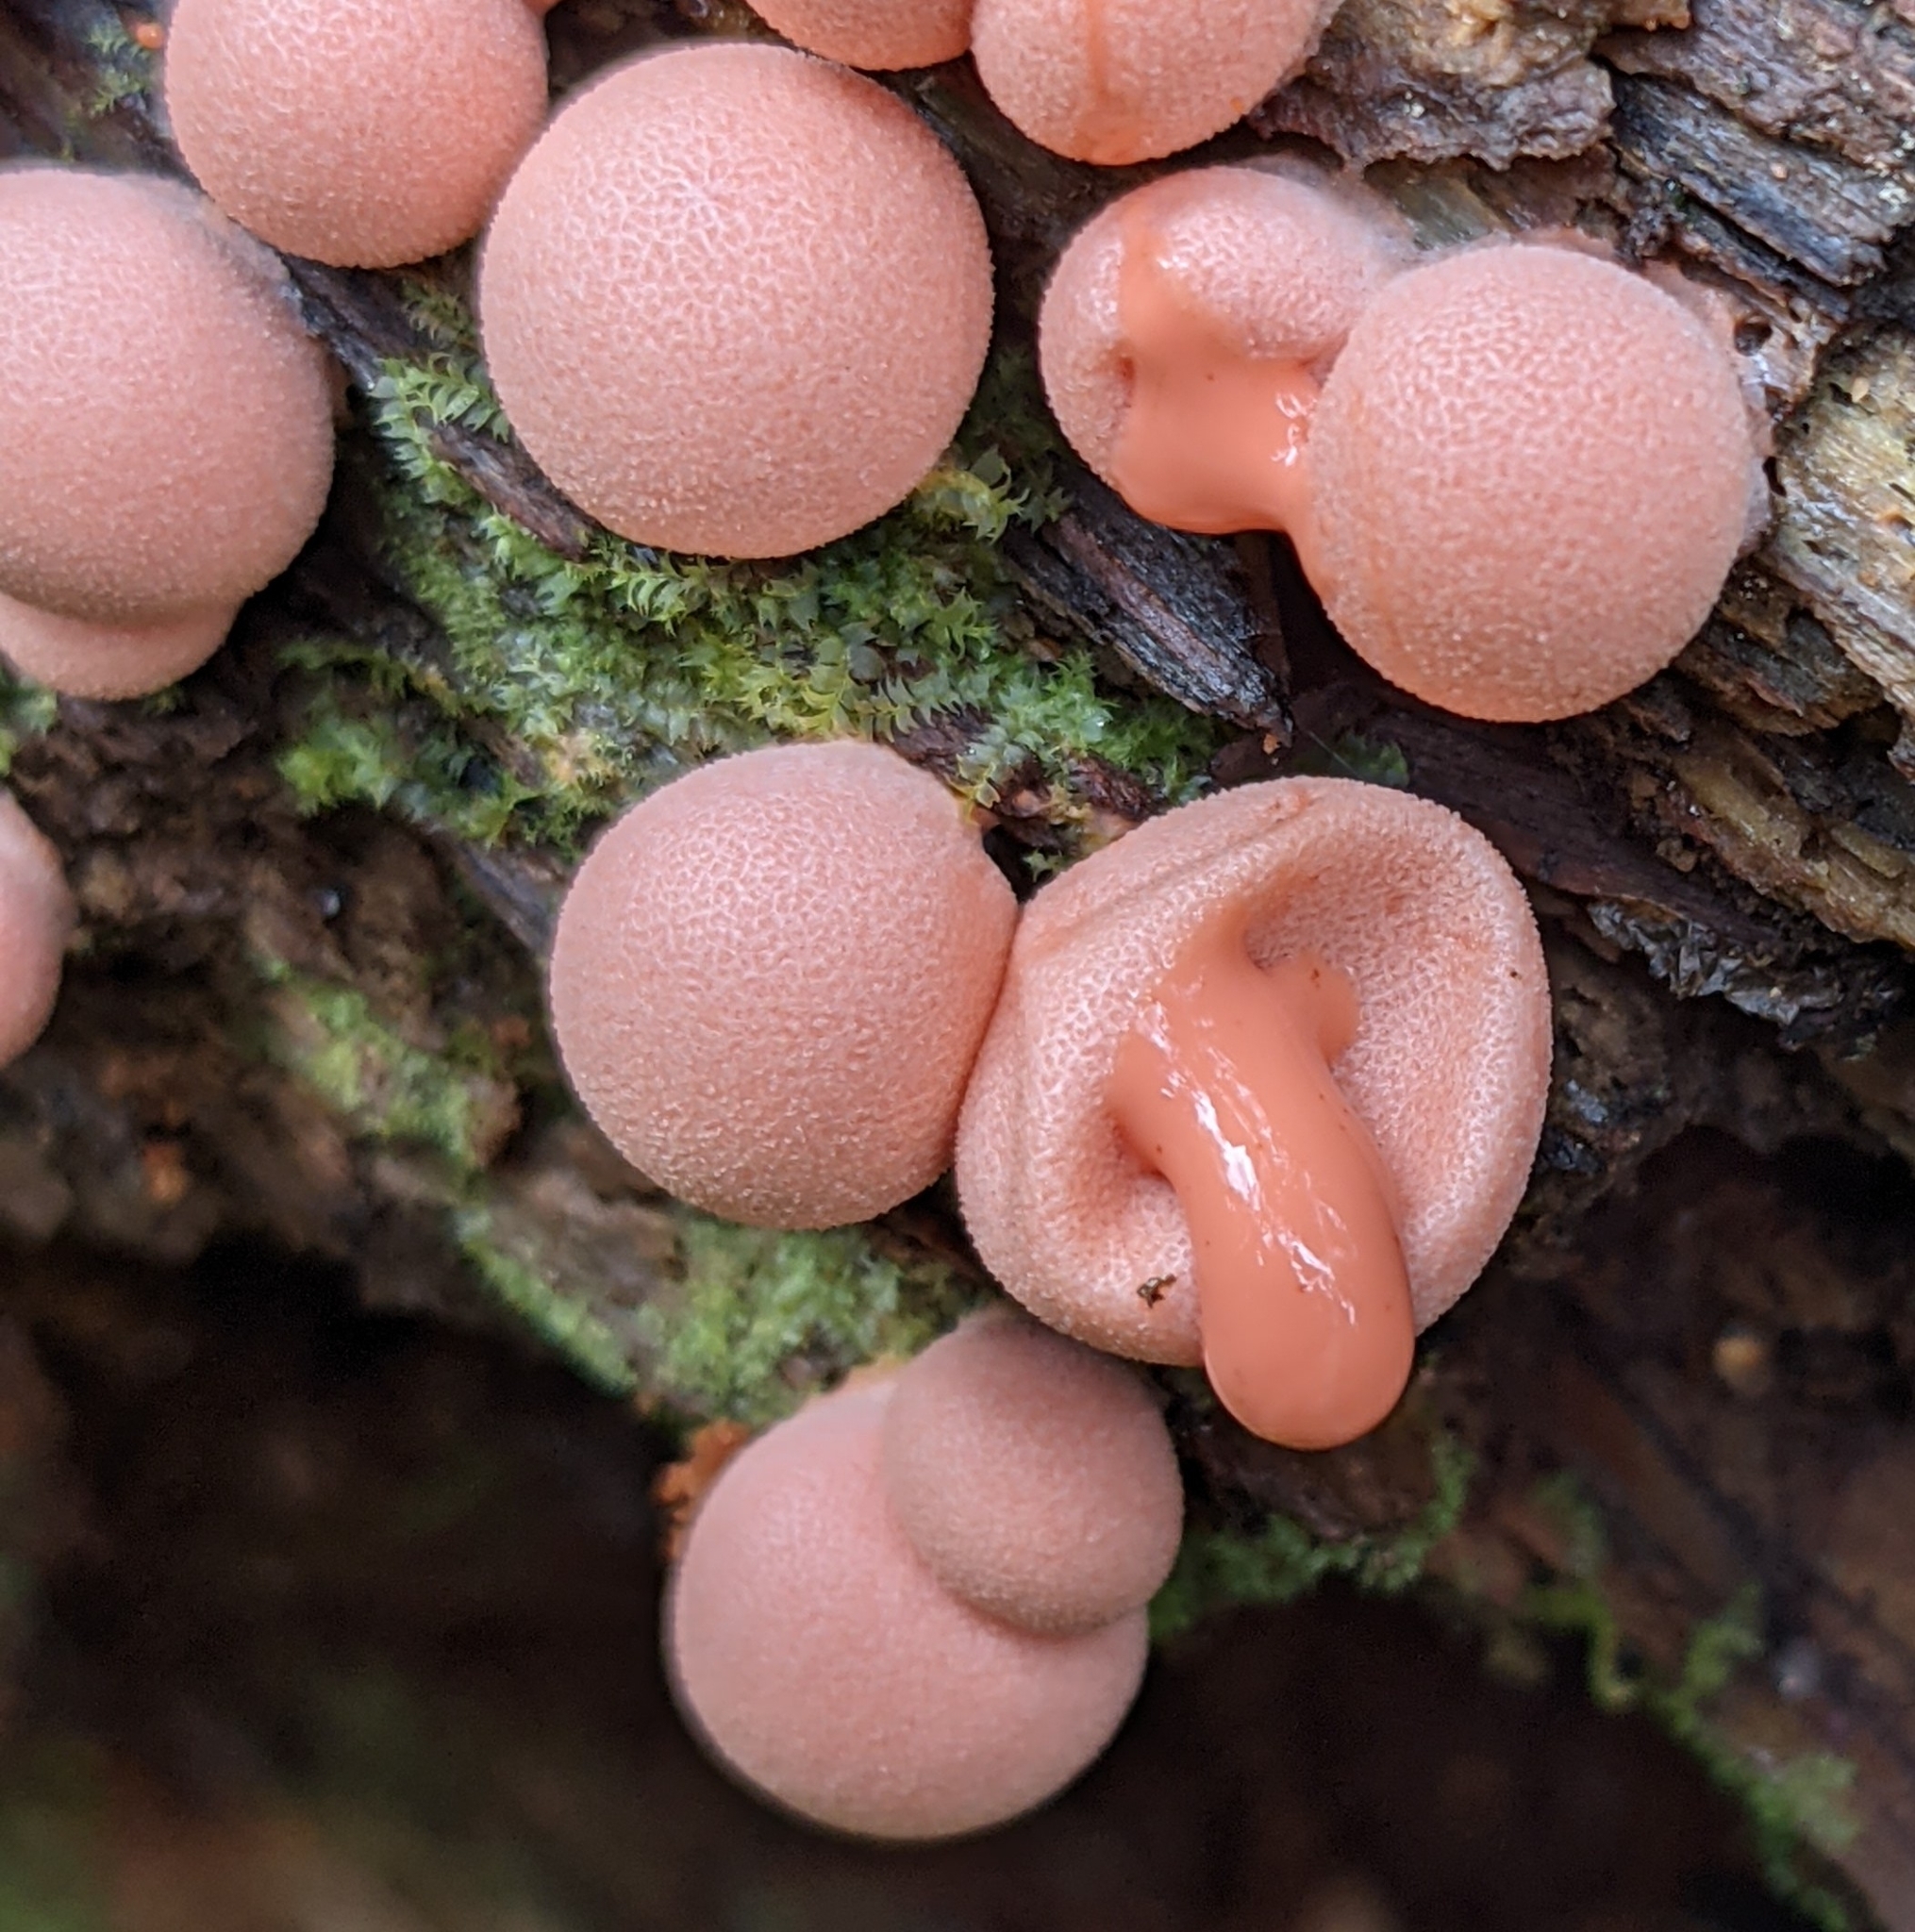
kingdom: Protozoa
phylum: Mycetozoa
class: Myxomycetes
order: Cribrariales
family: Tubiferaceae
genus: Lycogala
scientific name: Lycogala epidendrum
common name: Wolf's milk
